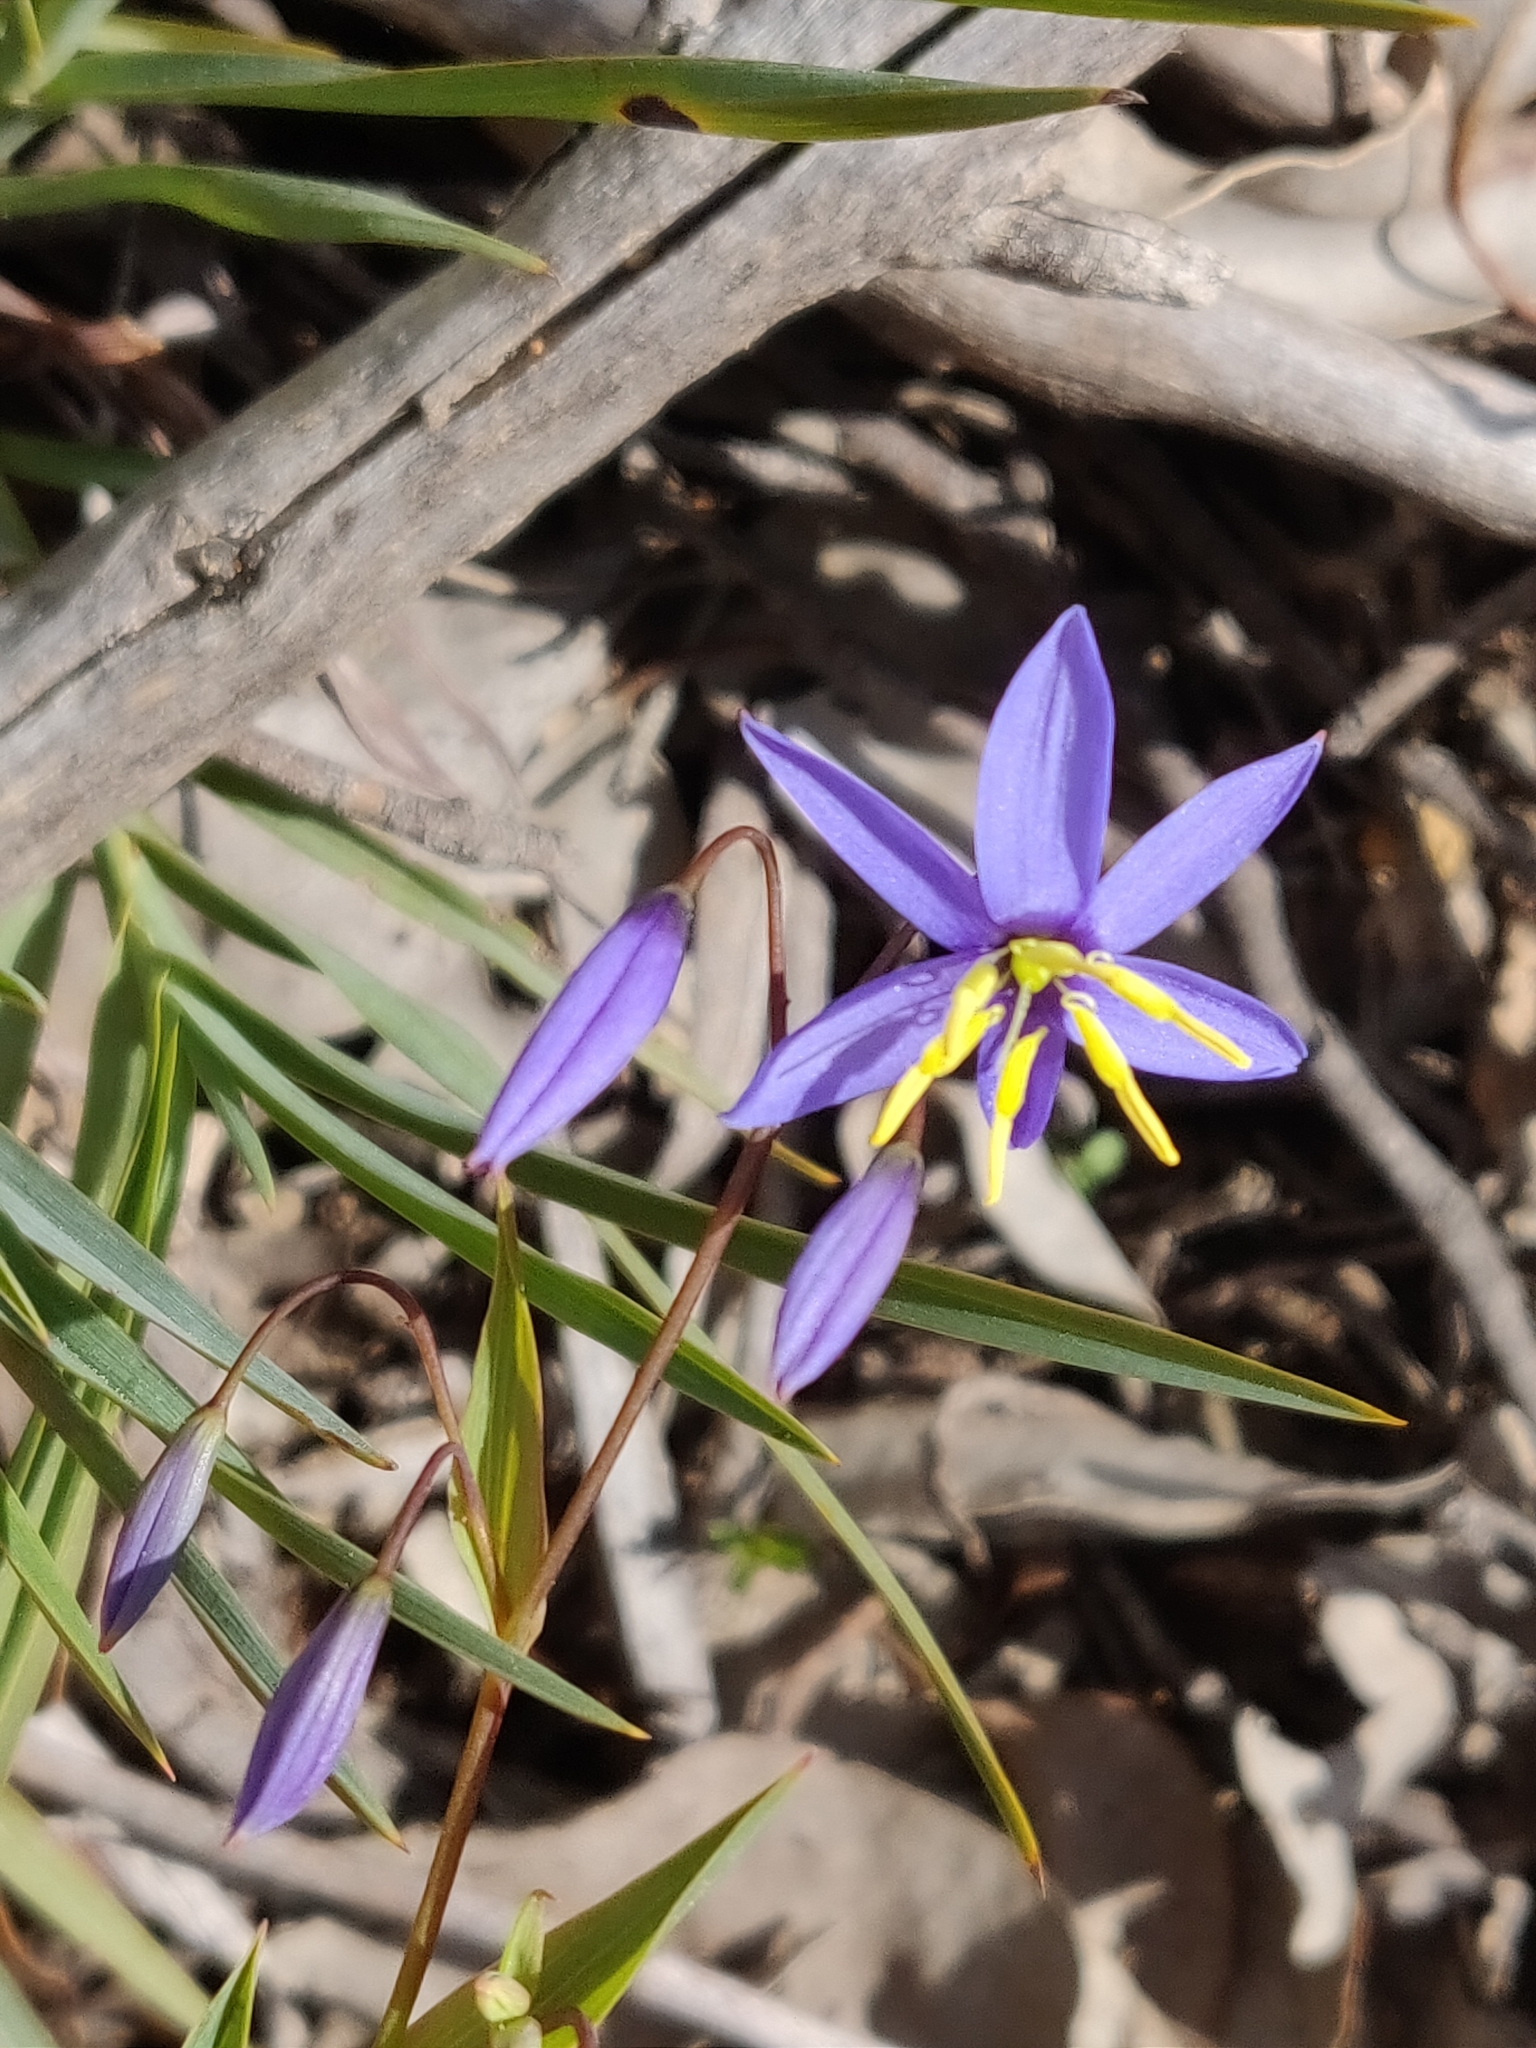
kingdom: Plantae
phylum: Tracheophyta
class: Liliopsida
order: Asparagales
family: Asphodelaceae
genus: Stypandra
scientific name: Stypandra glauca
